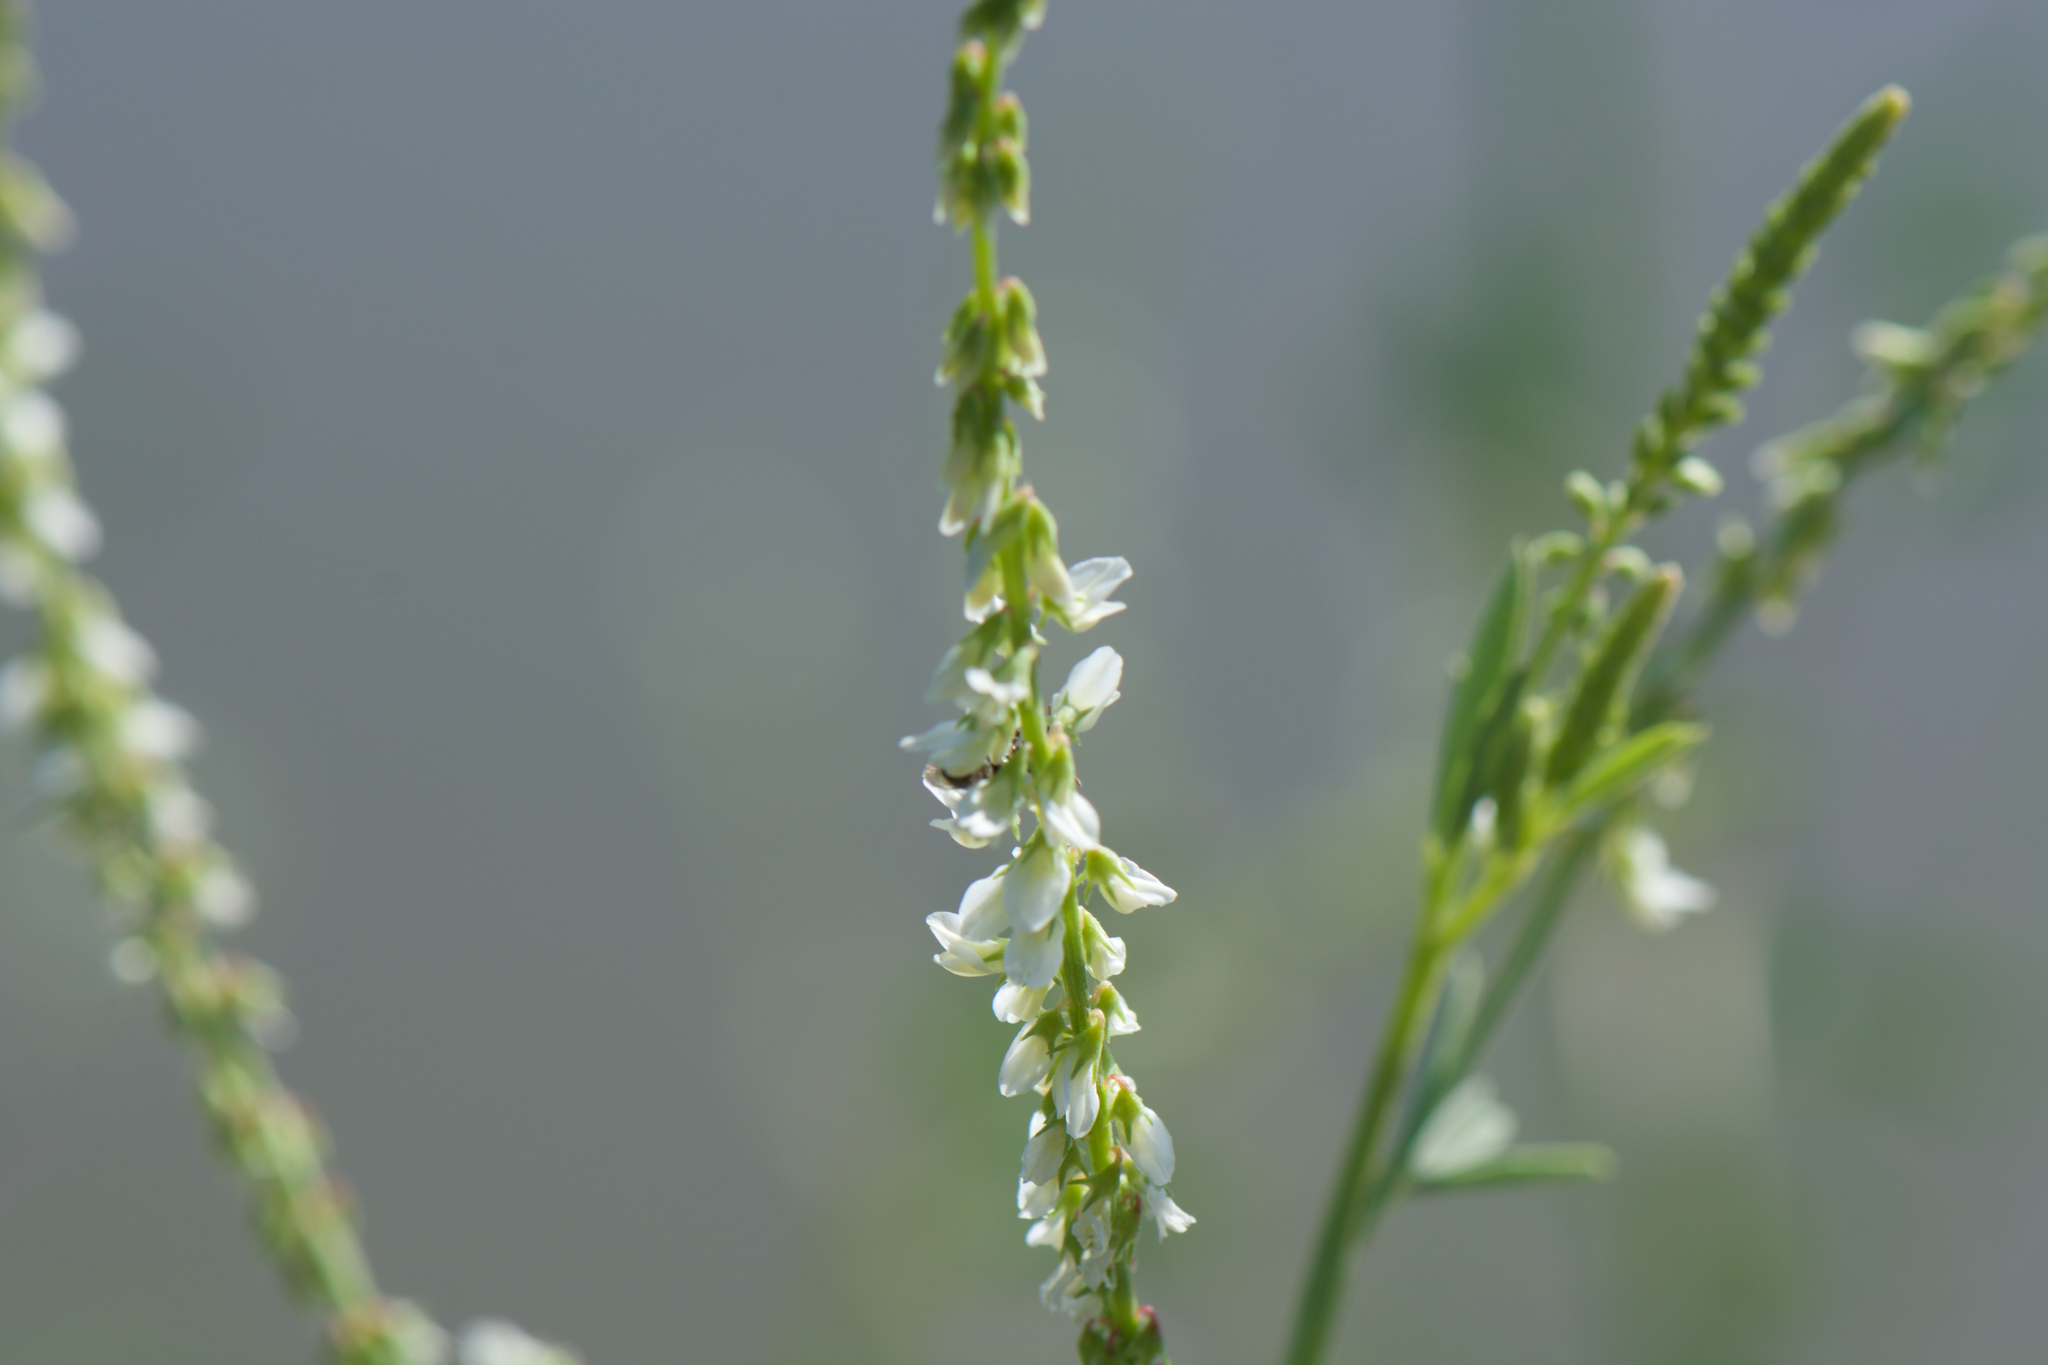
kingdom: Plantae
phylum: Tracheophyta
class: Magnoliopsida
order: Fabales
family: Fabaceae
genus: Melilotus
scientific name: Melilotus albus
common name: White melilot
